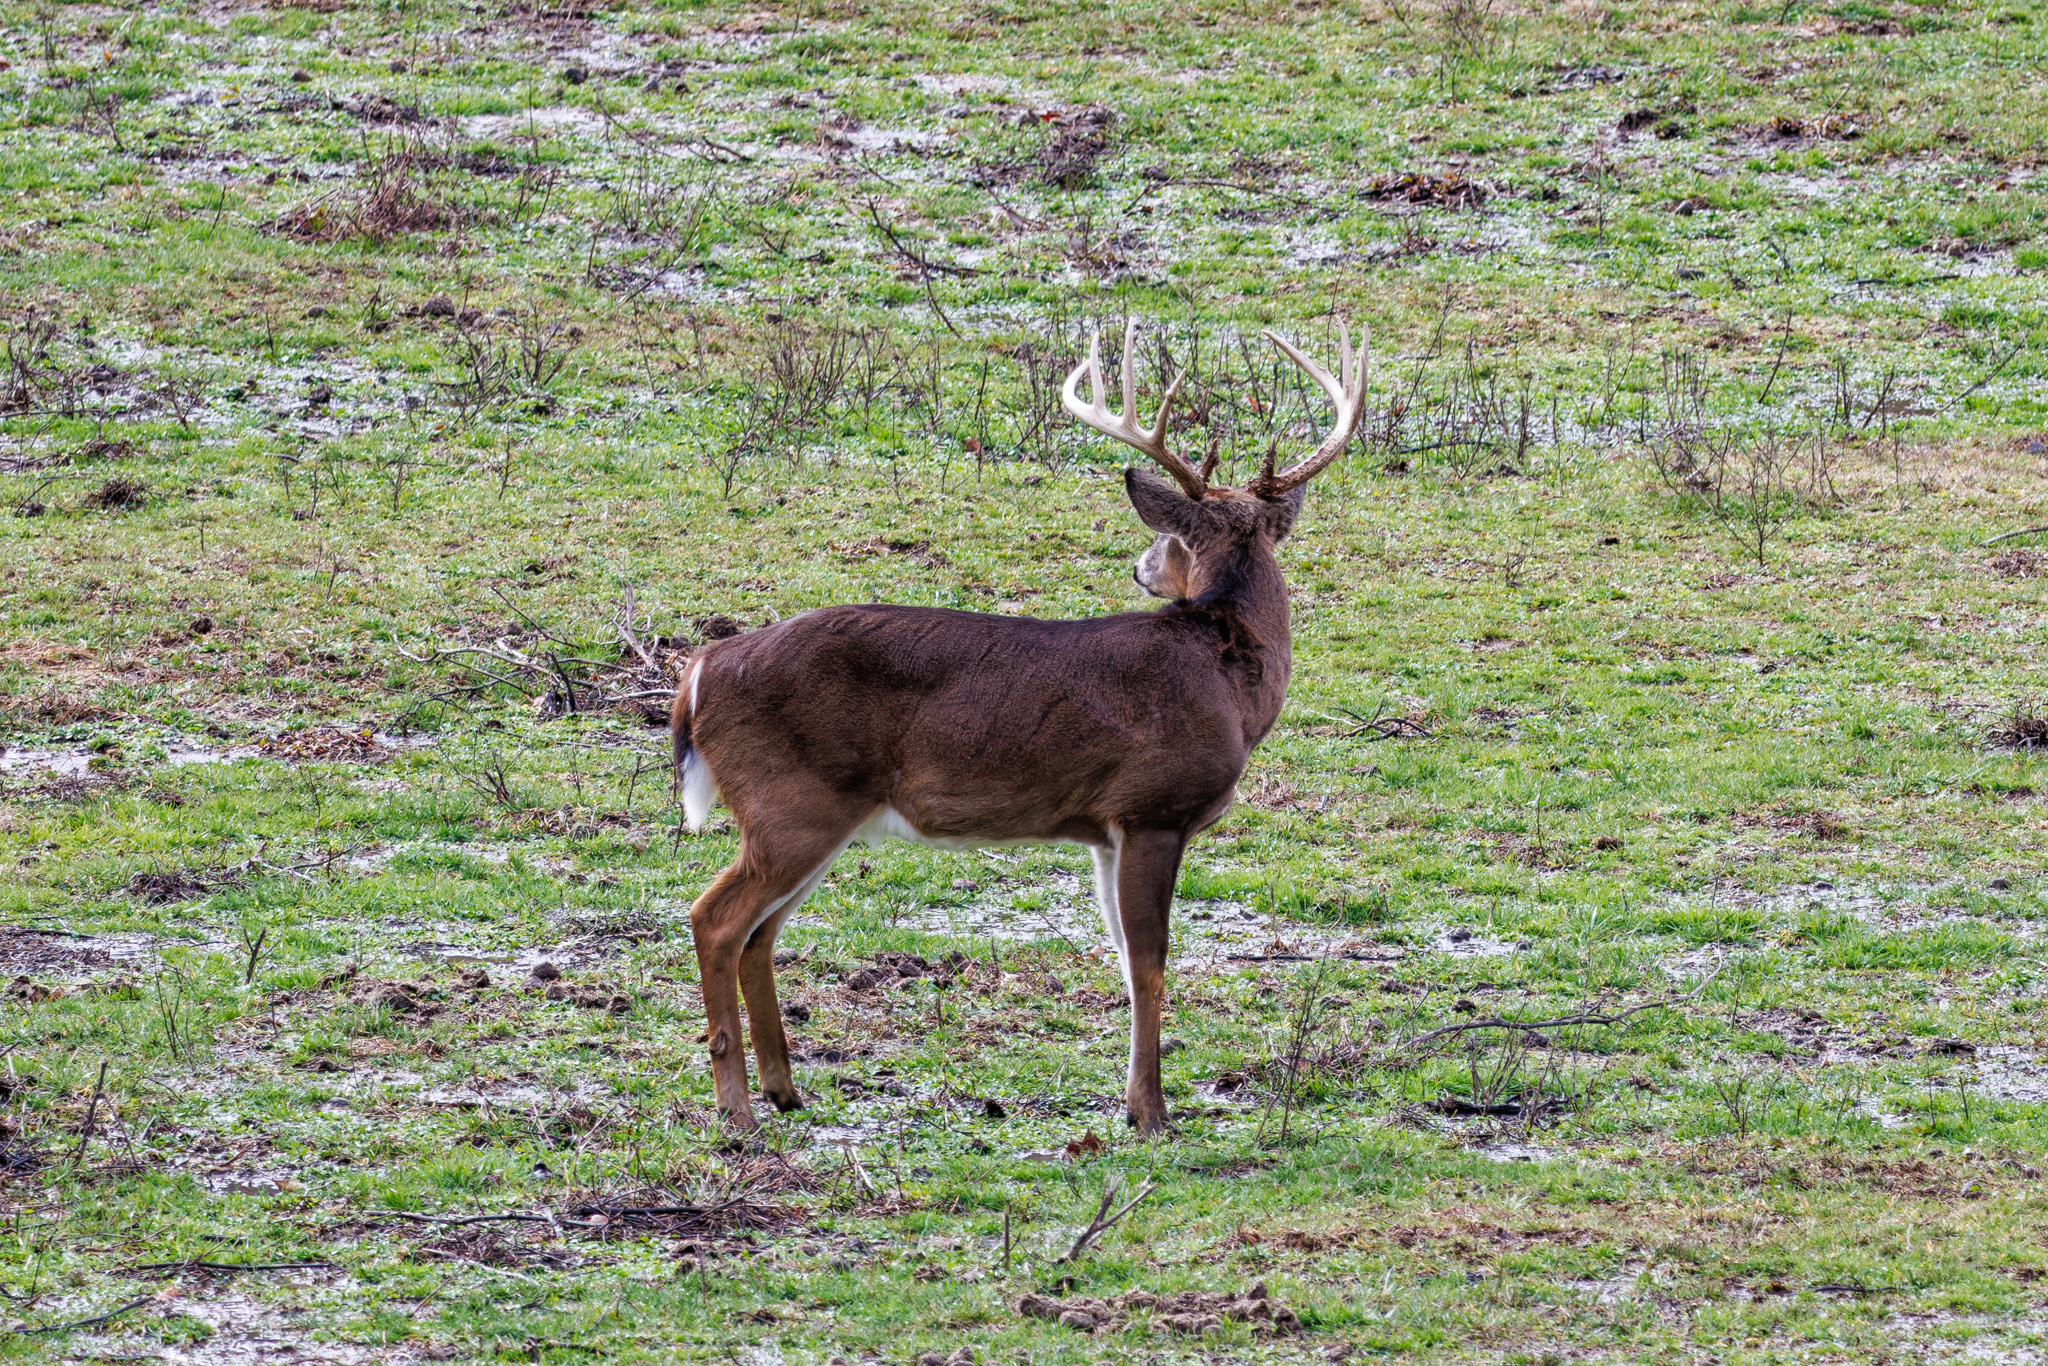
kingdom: Animalia
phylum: Chordata
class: Mammalia
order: Artiodactyla
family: Cervidae
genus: Odocoileus
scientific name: Odocoileus virginianus
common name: White-tailed deer
